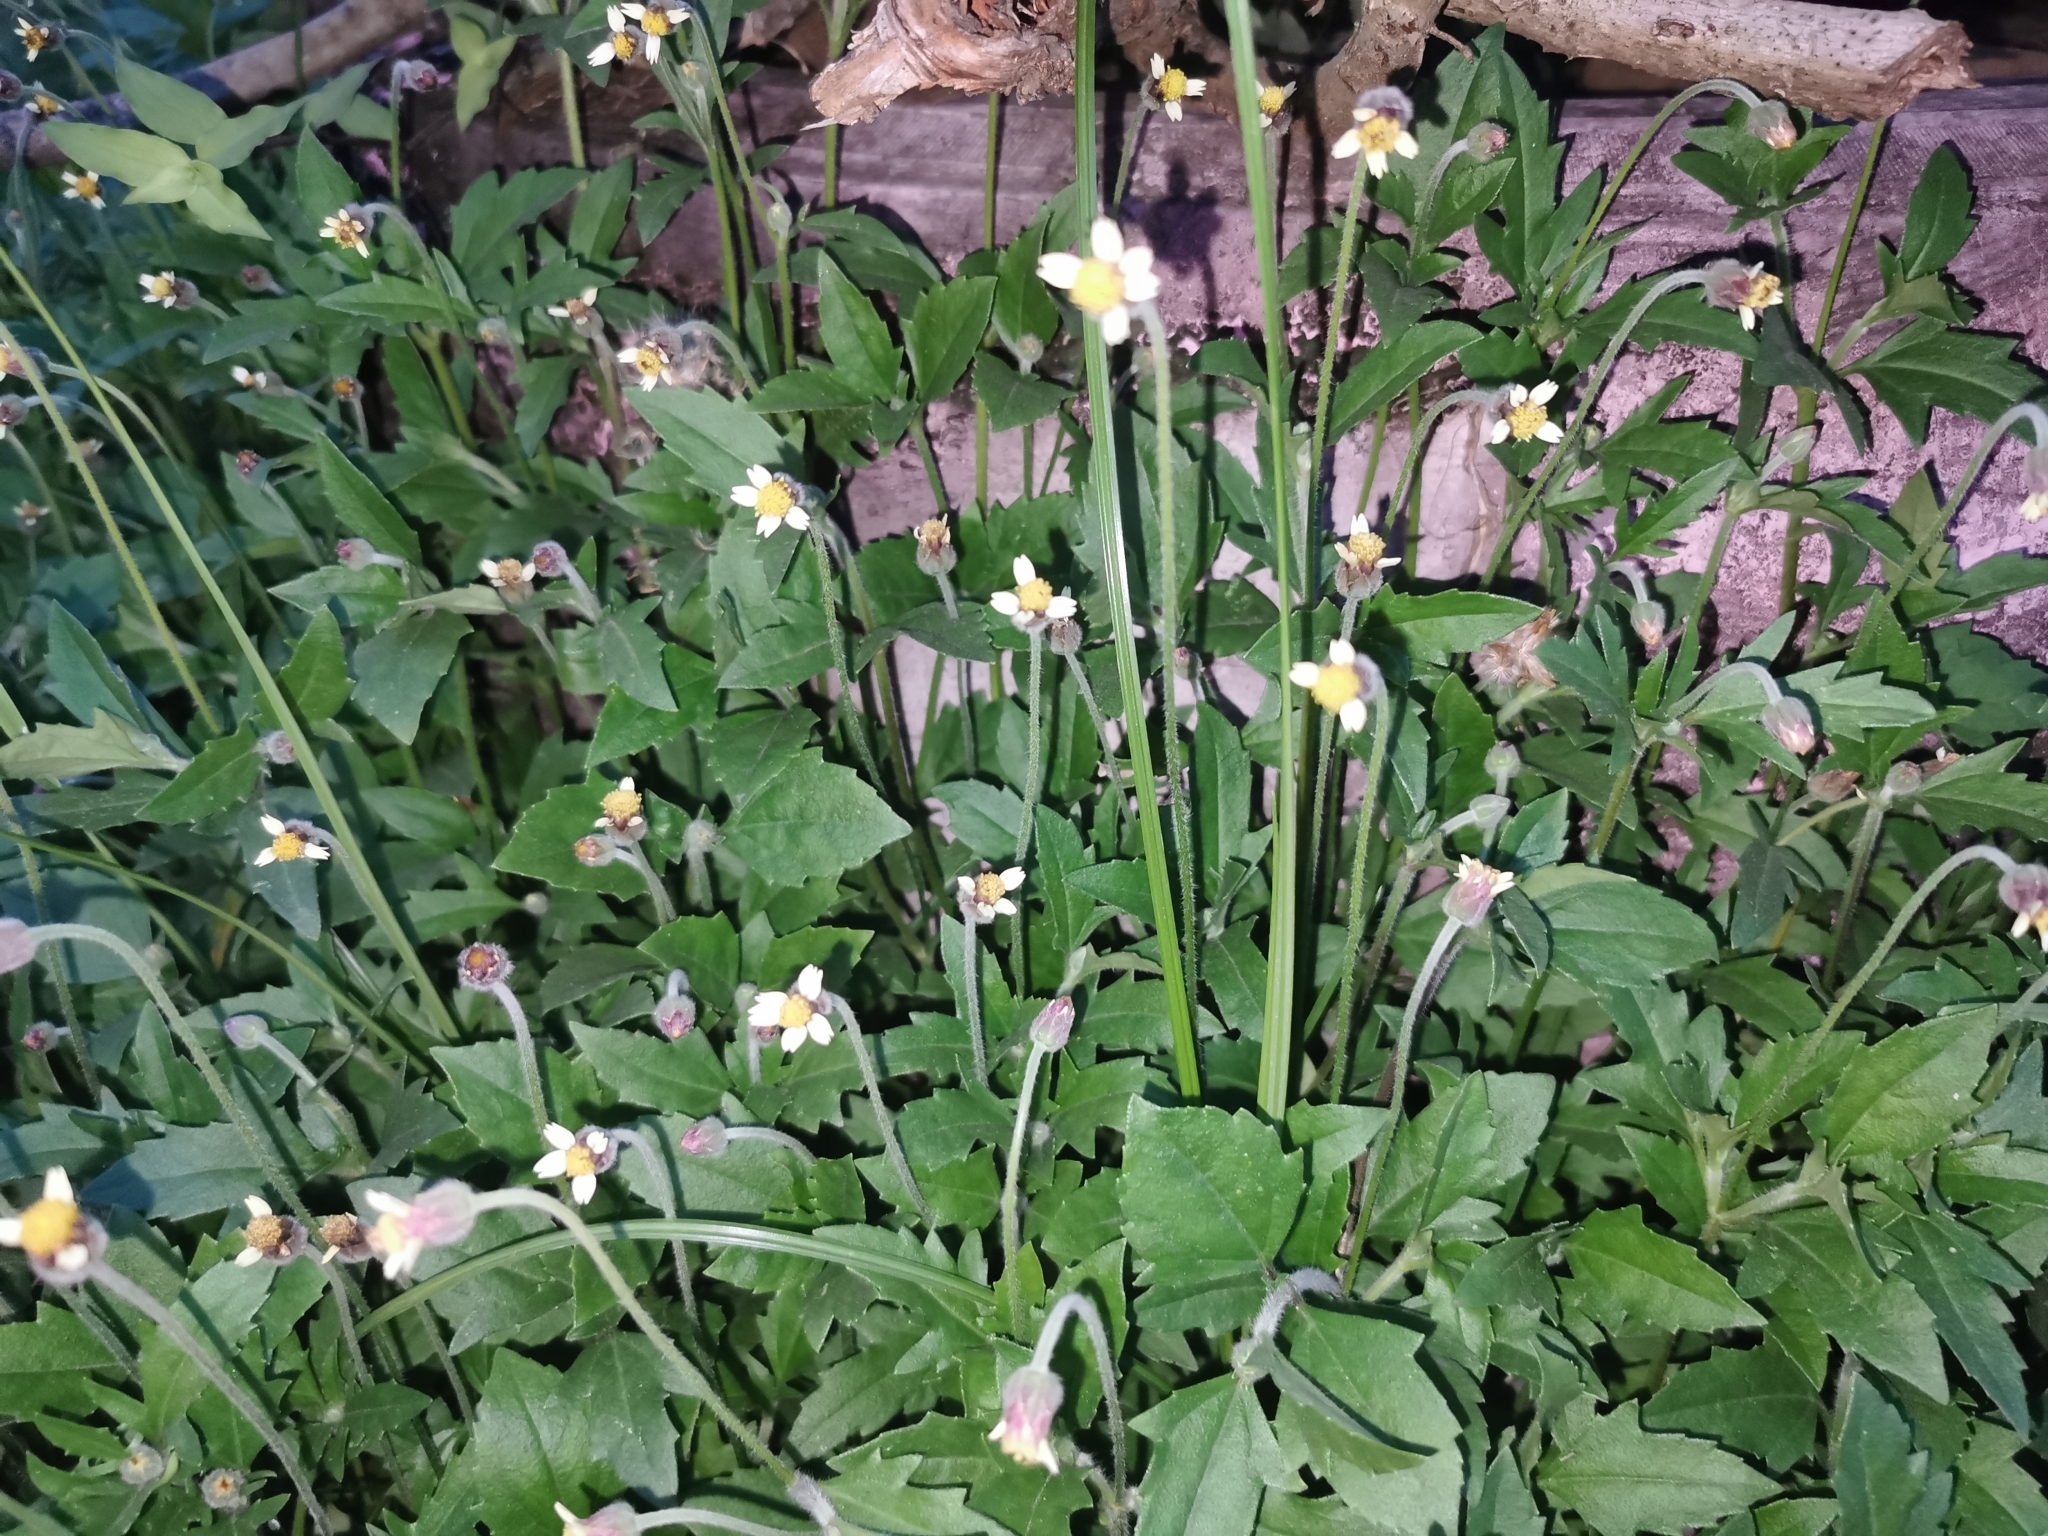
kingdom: Plantae
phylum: Tracheophyta
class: Magnoliopsida
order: Asterales
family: Asteraceae
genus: Tridax
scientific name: Tridax procumbens
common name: Coatbuttons
